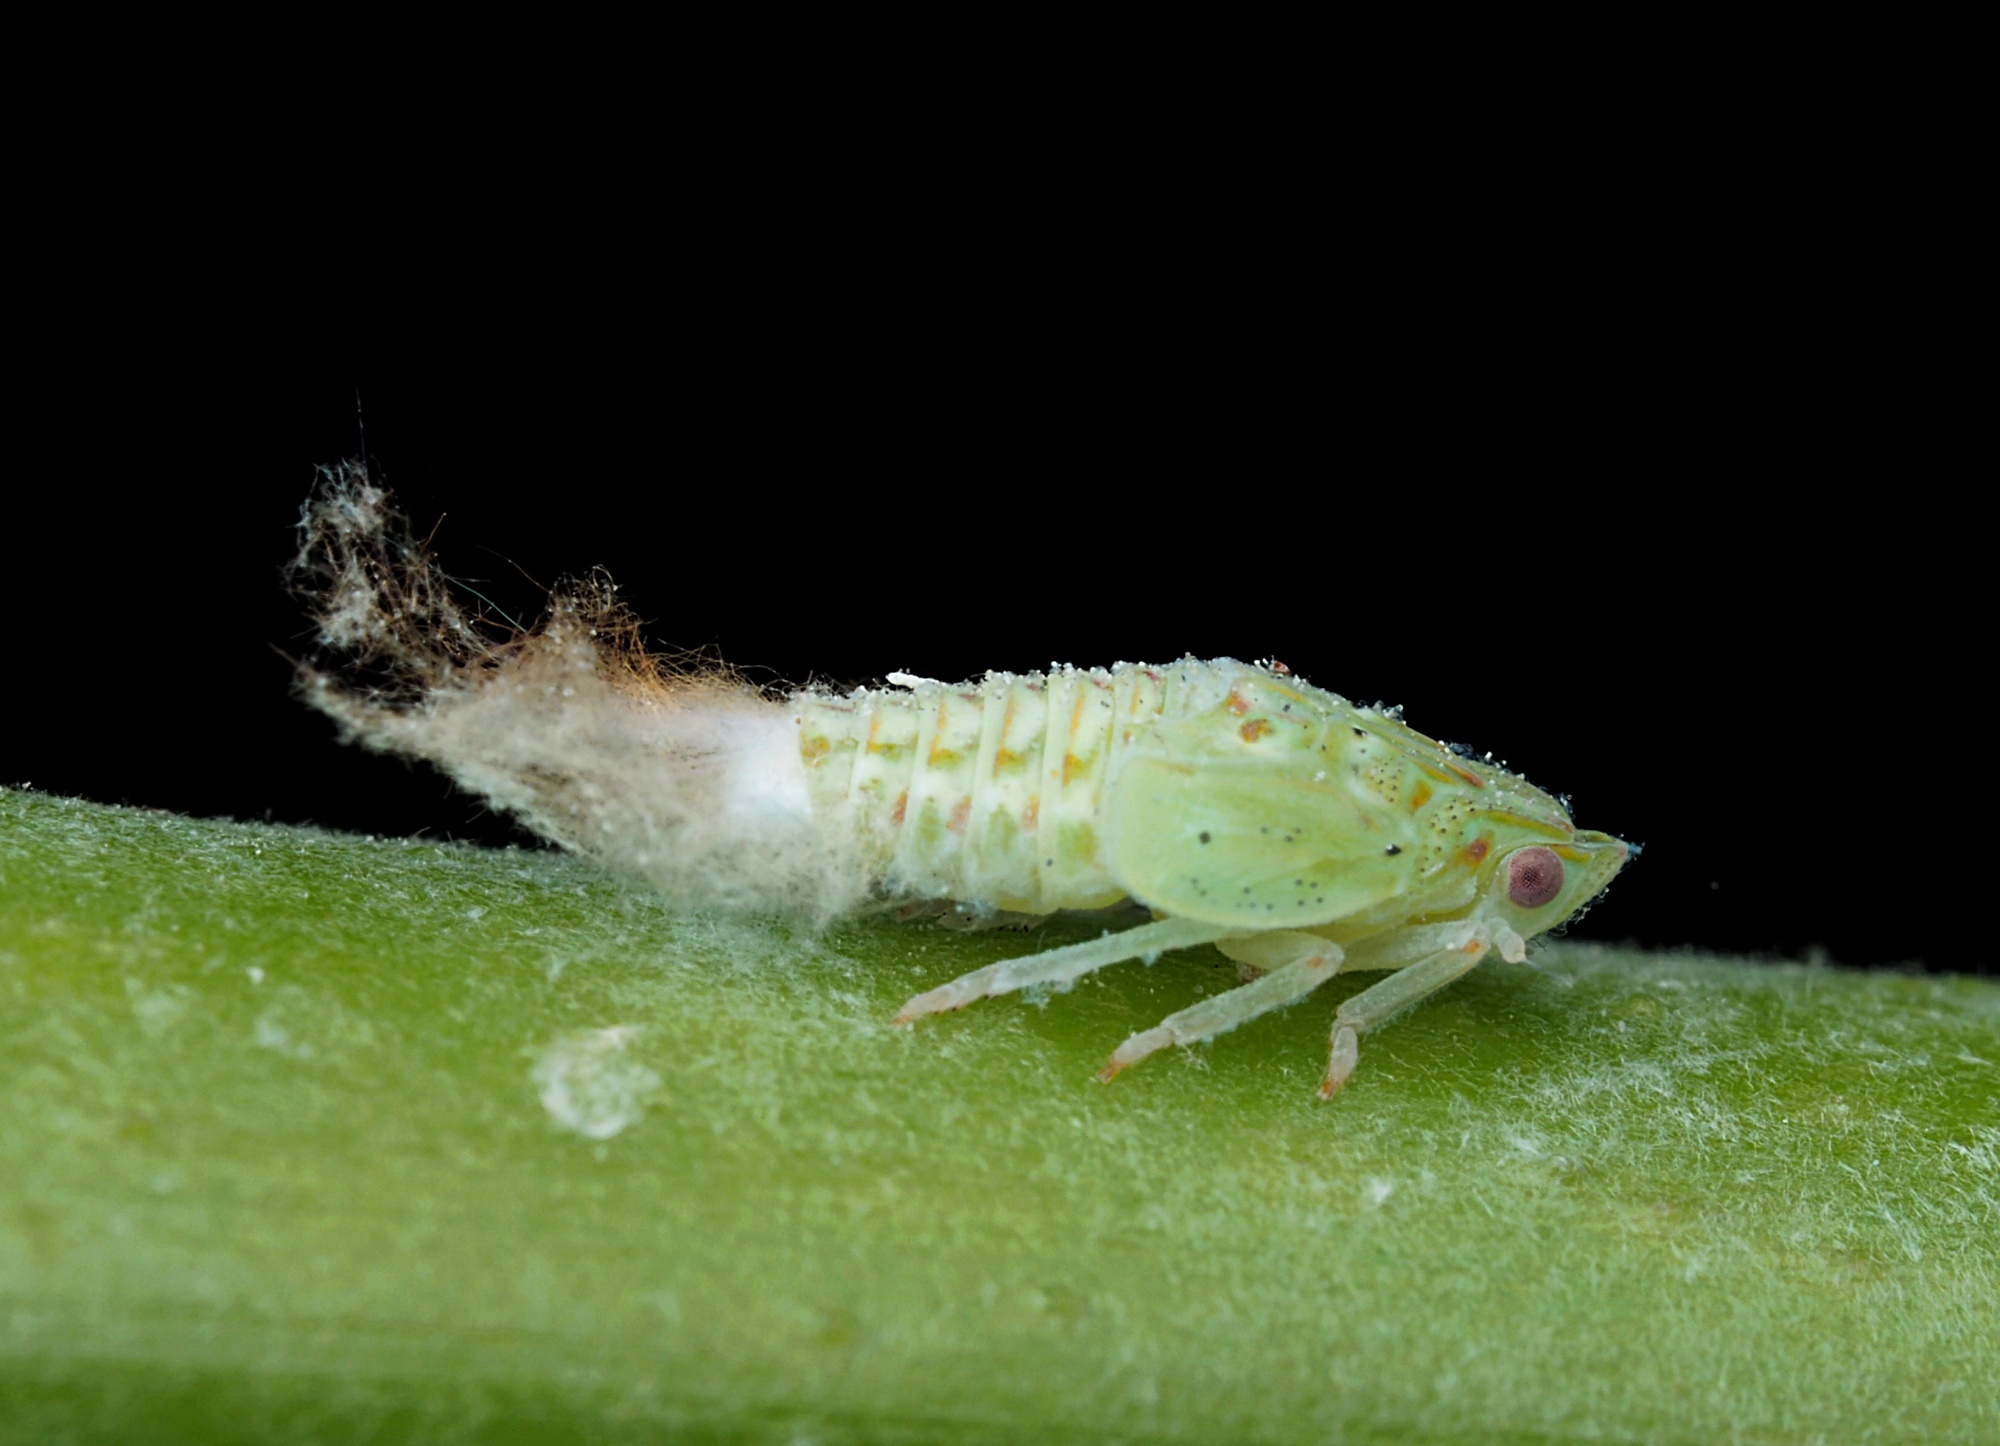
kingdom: Animalia
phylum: Arthropoda
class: Insecta
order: Hemiptera
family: Flatidae
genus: Siphanta
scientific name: Siphanta acuta
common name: Torpedo bug
